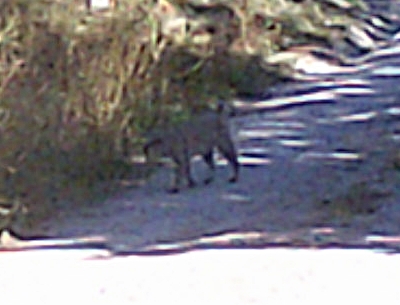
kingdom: Animalia
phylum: Chordata
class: Mammalia
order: Carnivora
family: Felidae
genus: Lynx
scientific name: Lynx rufus
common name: Bobcat
